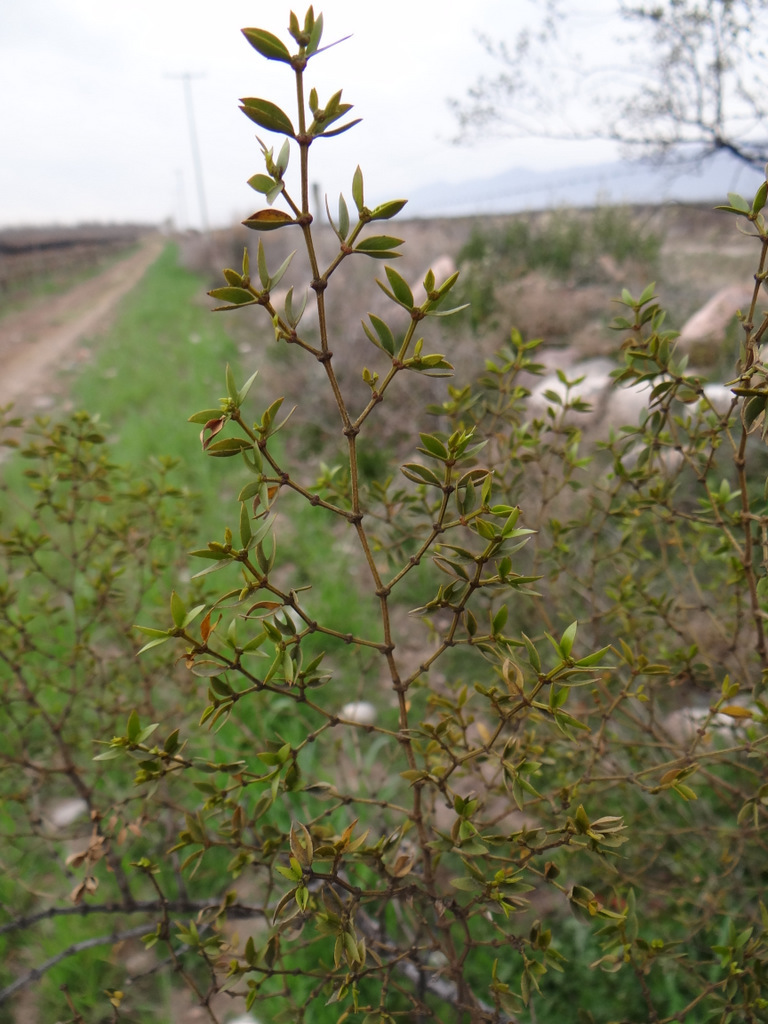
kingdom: Plantae
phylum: Tracheophyta
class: Magnoliopsida
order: Zygophyllales
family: Zygophyllaceae
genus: Larrea
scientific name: Larrea divaricata
